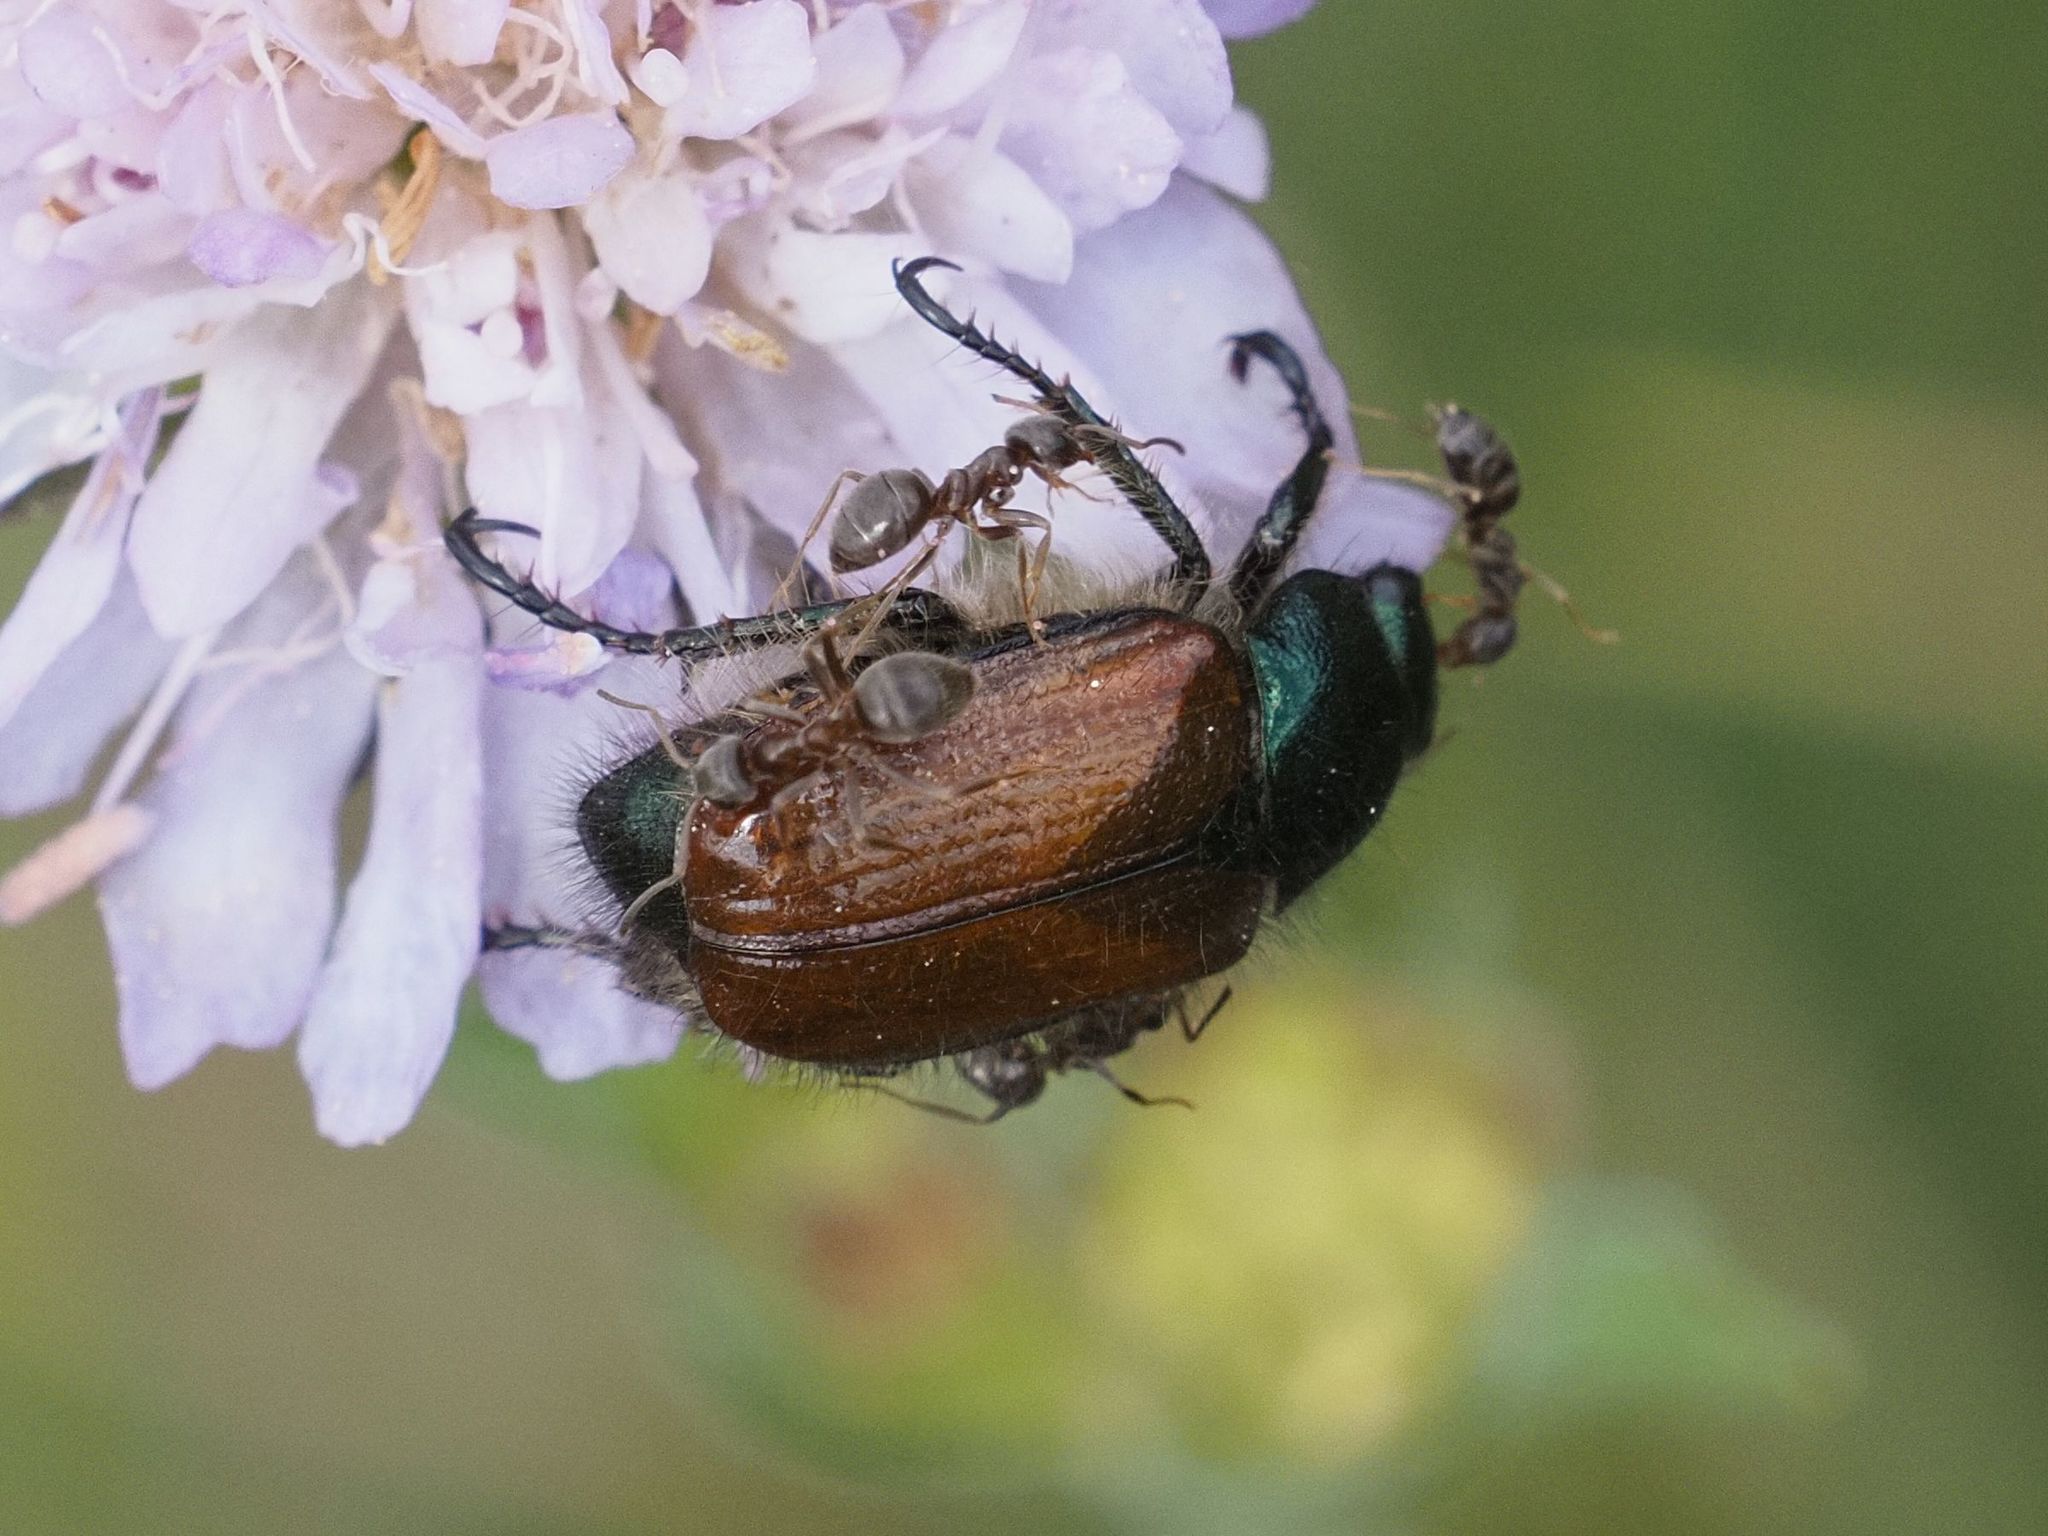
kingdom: Animalia
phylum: Arthropoda
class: Insecta
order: Coleoptera
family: Scarabaeidae
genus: Phyllopertha
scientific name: Phyllopertha horticola
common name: Garden chafer
